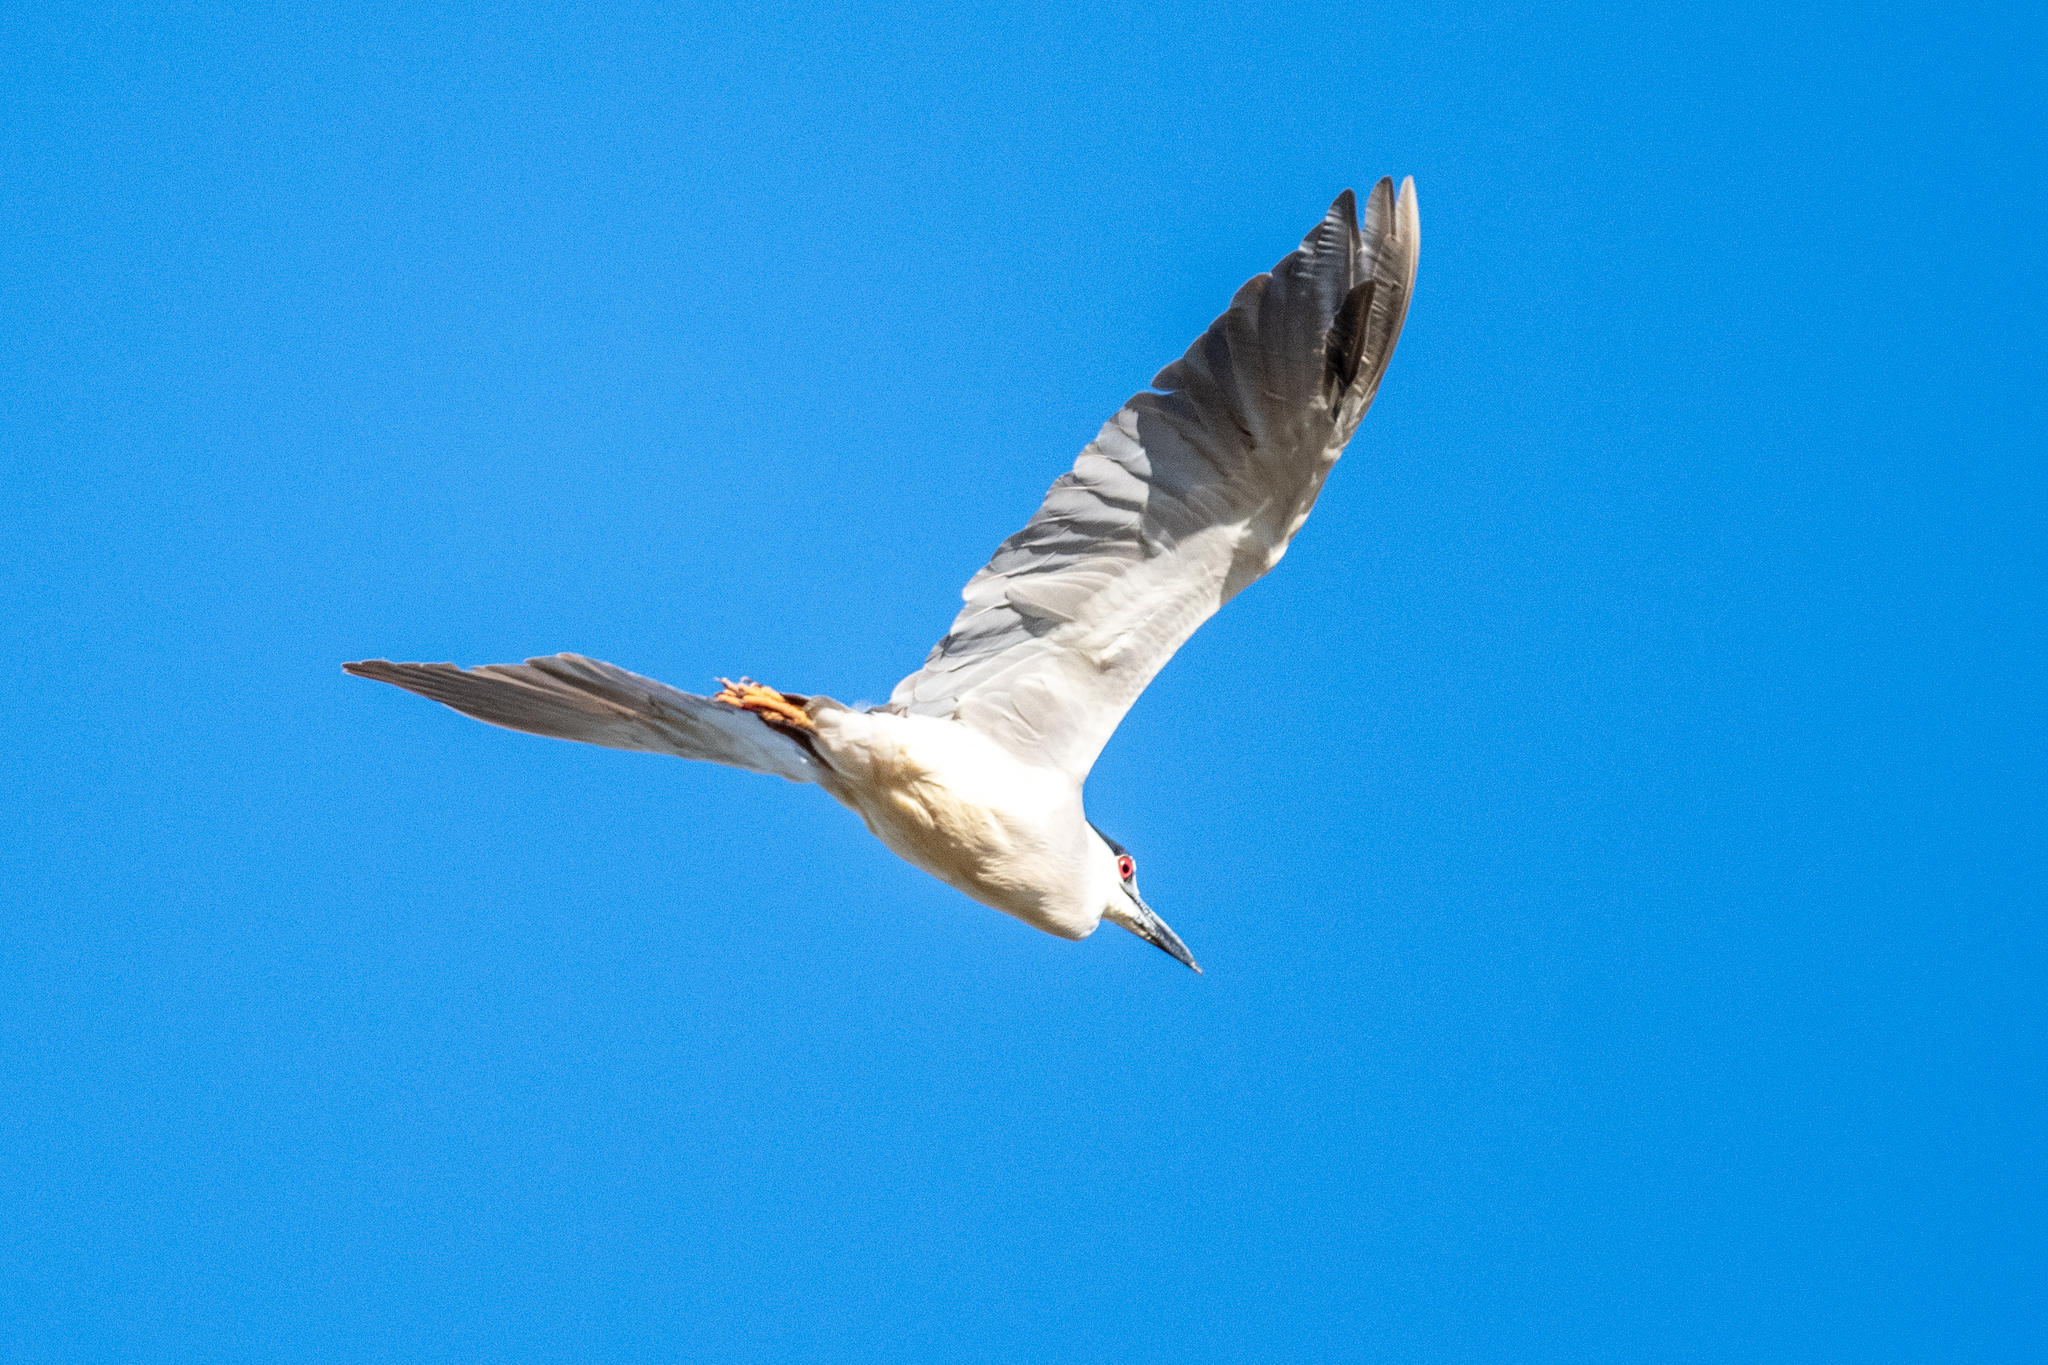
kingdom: Animalia
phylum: Chordata
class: Aves
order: Pelecaniformes
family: Ardeidae
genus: Nycticorax
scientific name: Nycticorax nycticorax
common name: Black-crowned night heron
